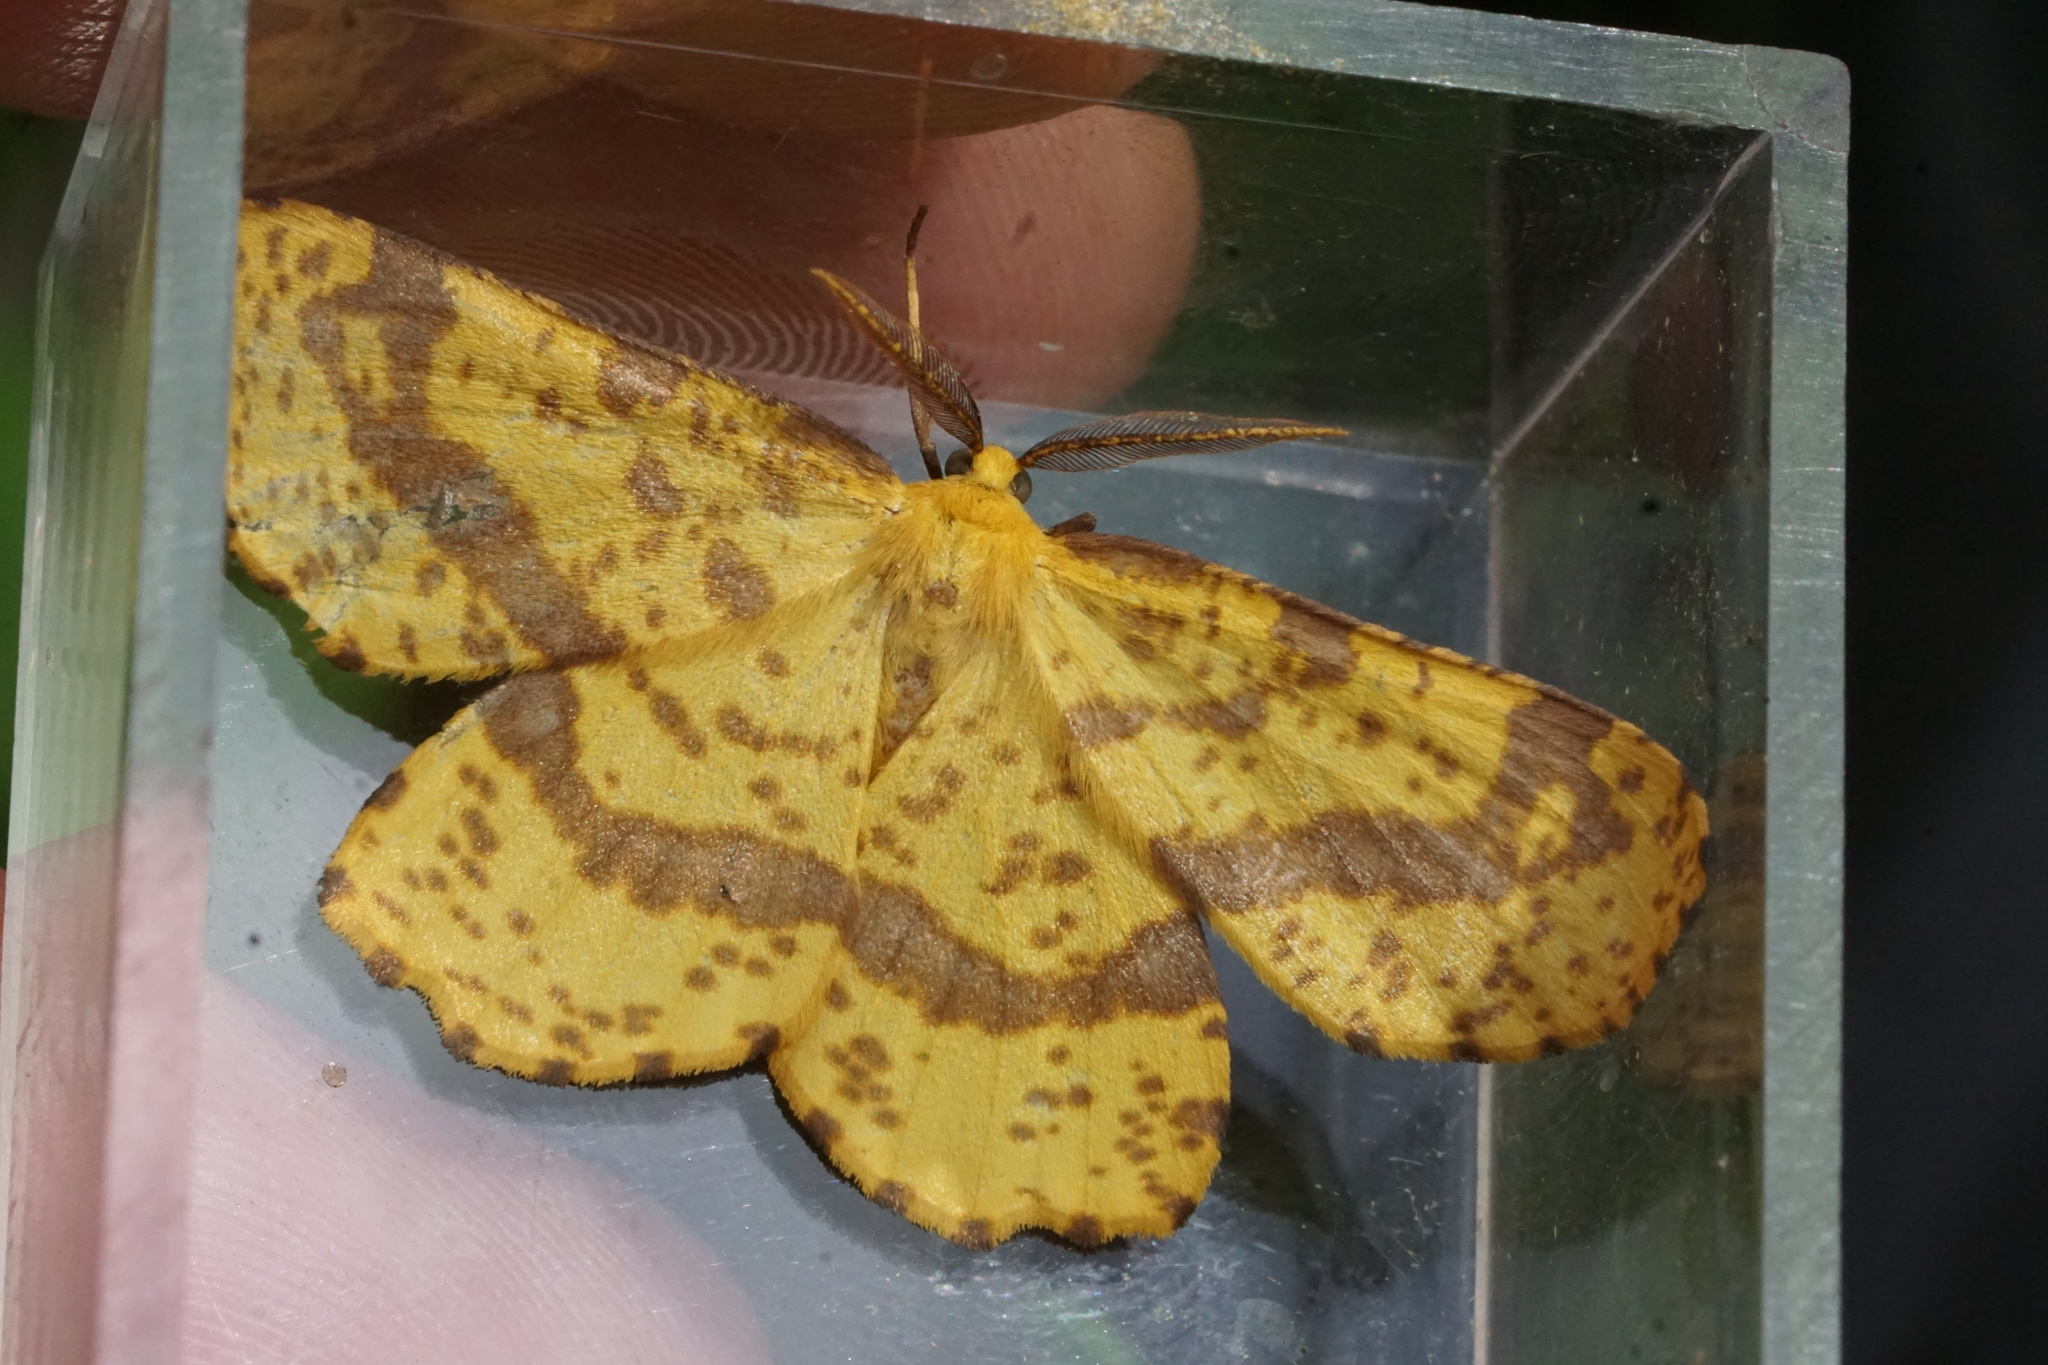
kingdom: Animalia
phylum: Arthropoda
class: Insecta
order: Lepidoptera
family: Geometridae
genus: Xanthotype
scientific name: Xanthotype
